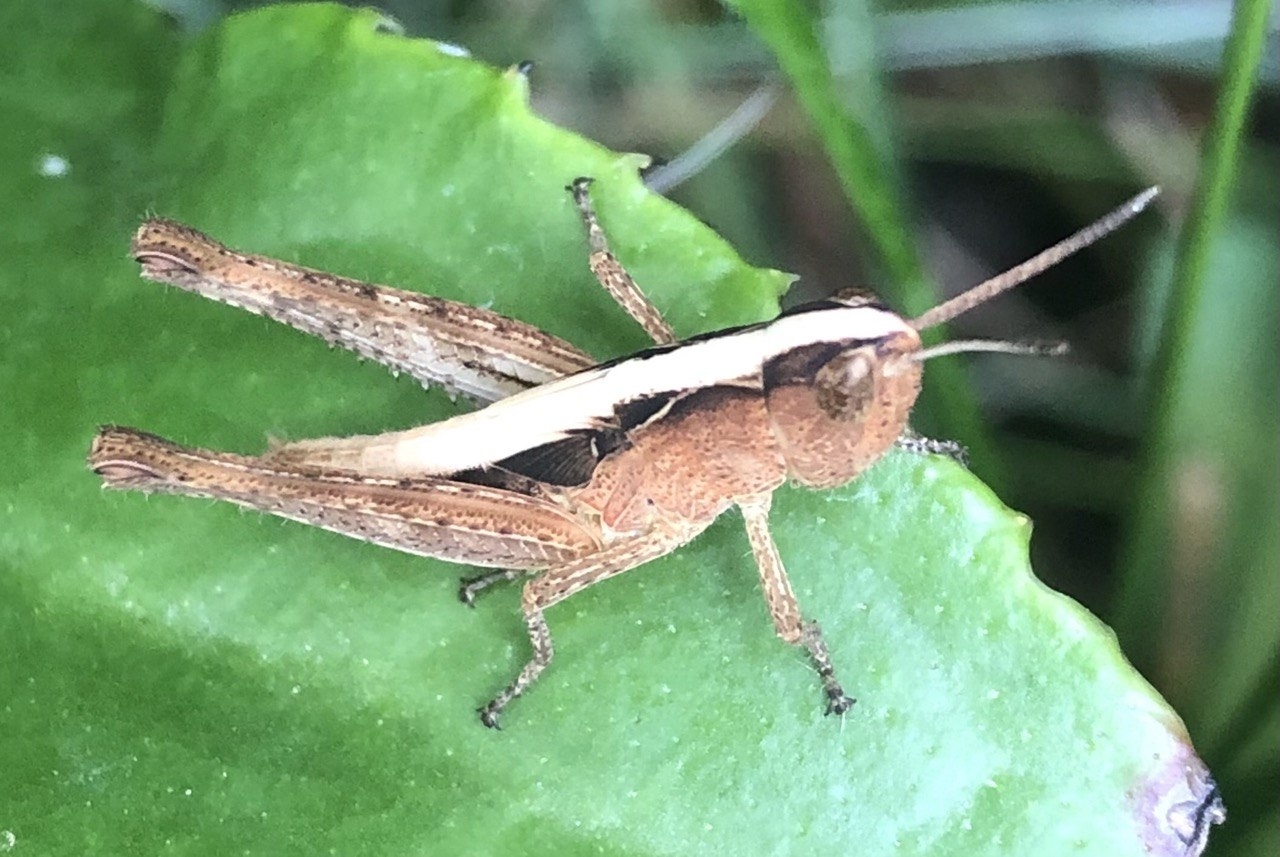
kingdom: Animalia
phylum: Arthropoda
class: Insecta
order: Orthoptera
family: Acrididae
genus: Gomphocerippus
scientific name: Gomphocerippus rufus
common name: Rufous grasshopper
